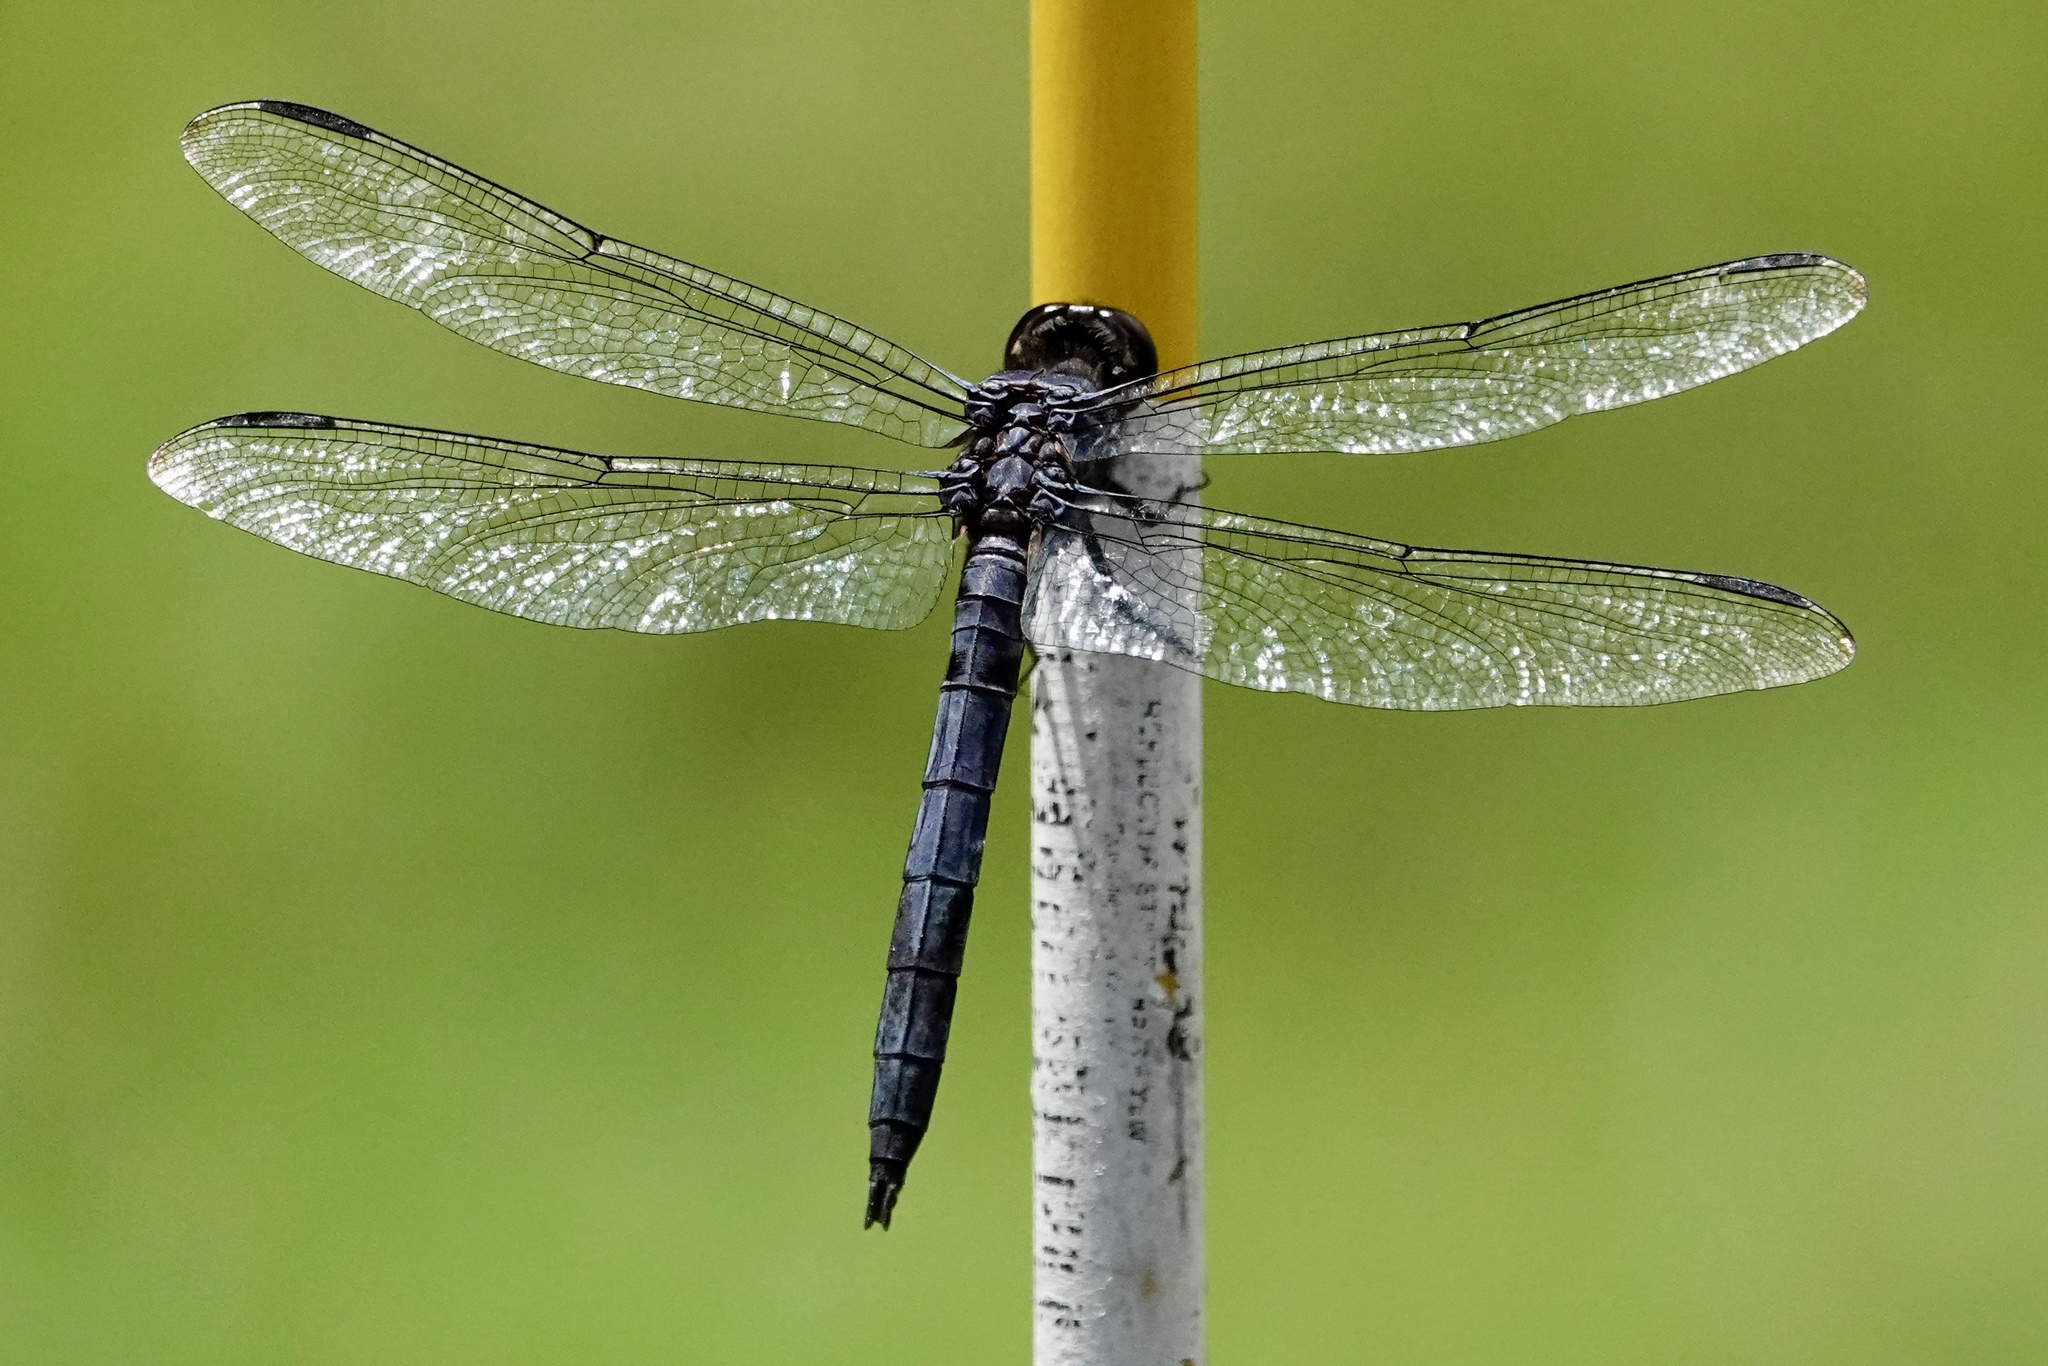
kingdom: Animalia
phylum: Arthropoda
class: Insecta
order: Odonata
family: Libellulidae
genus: Libellula
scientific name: Libellula incesta
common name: Slaty skimmer
